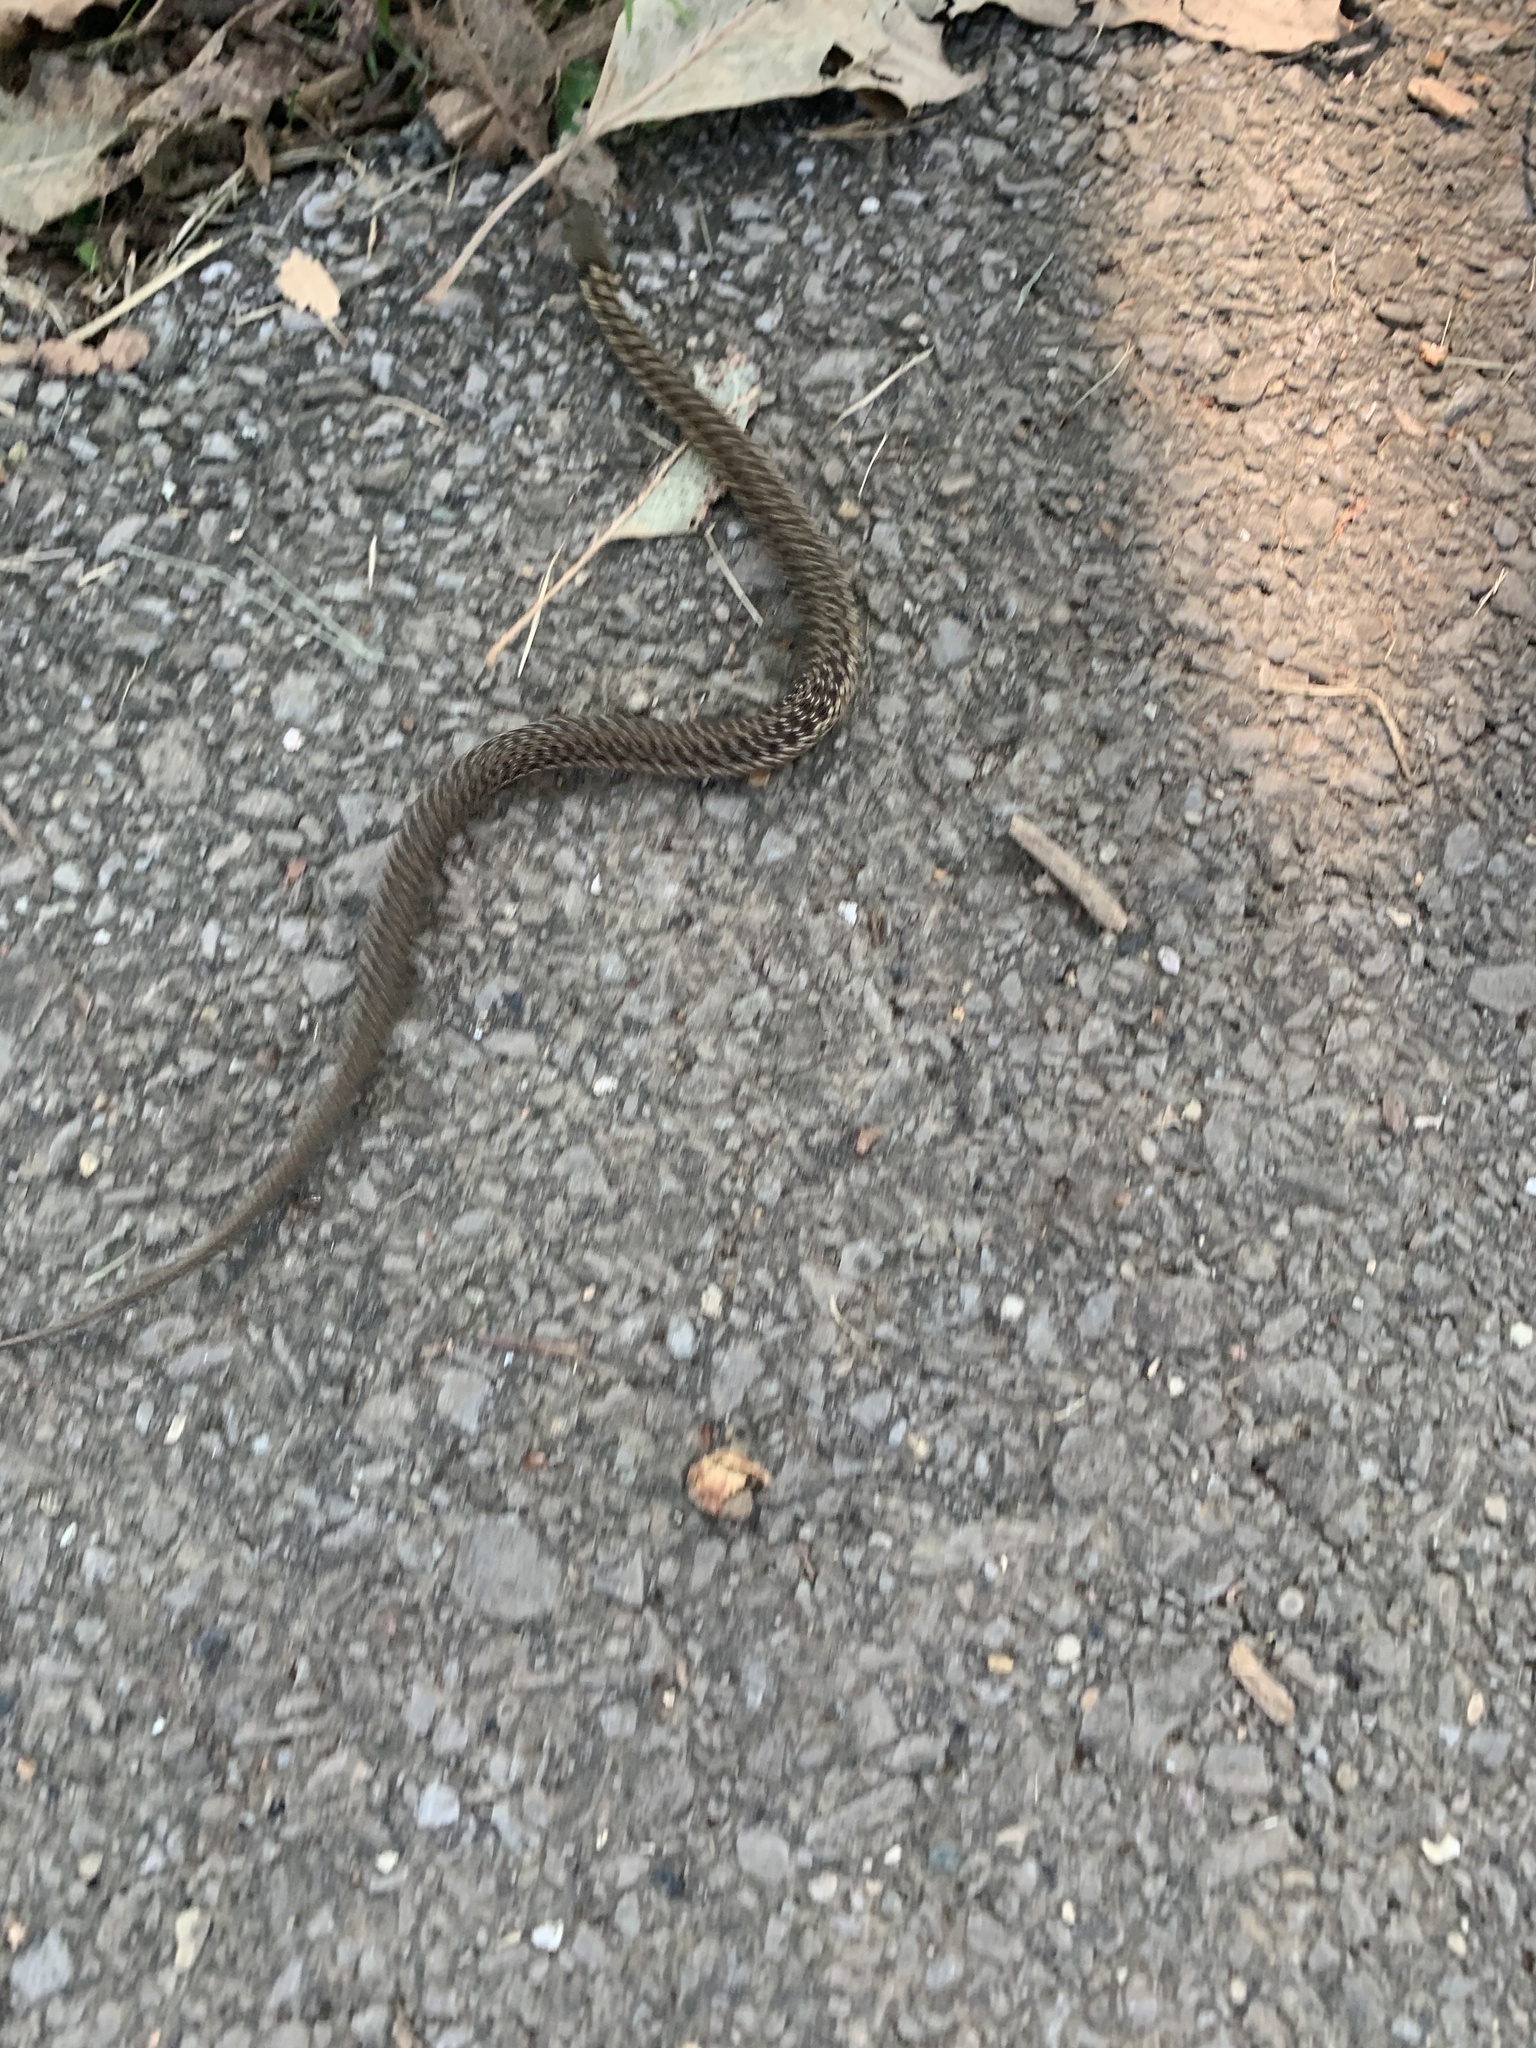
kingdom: Animalia
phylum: Chordata
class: Squamata
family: Colubridae
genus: Thamnophis
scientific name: Thamnophis sirtalis
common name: Common garter snake
